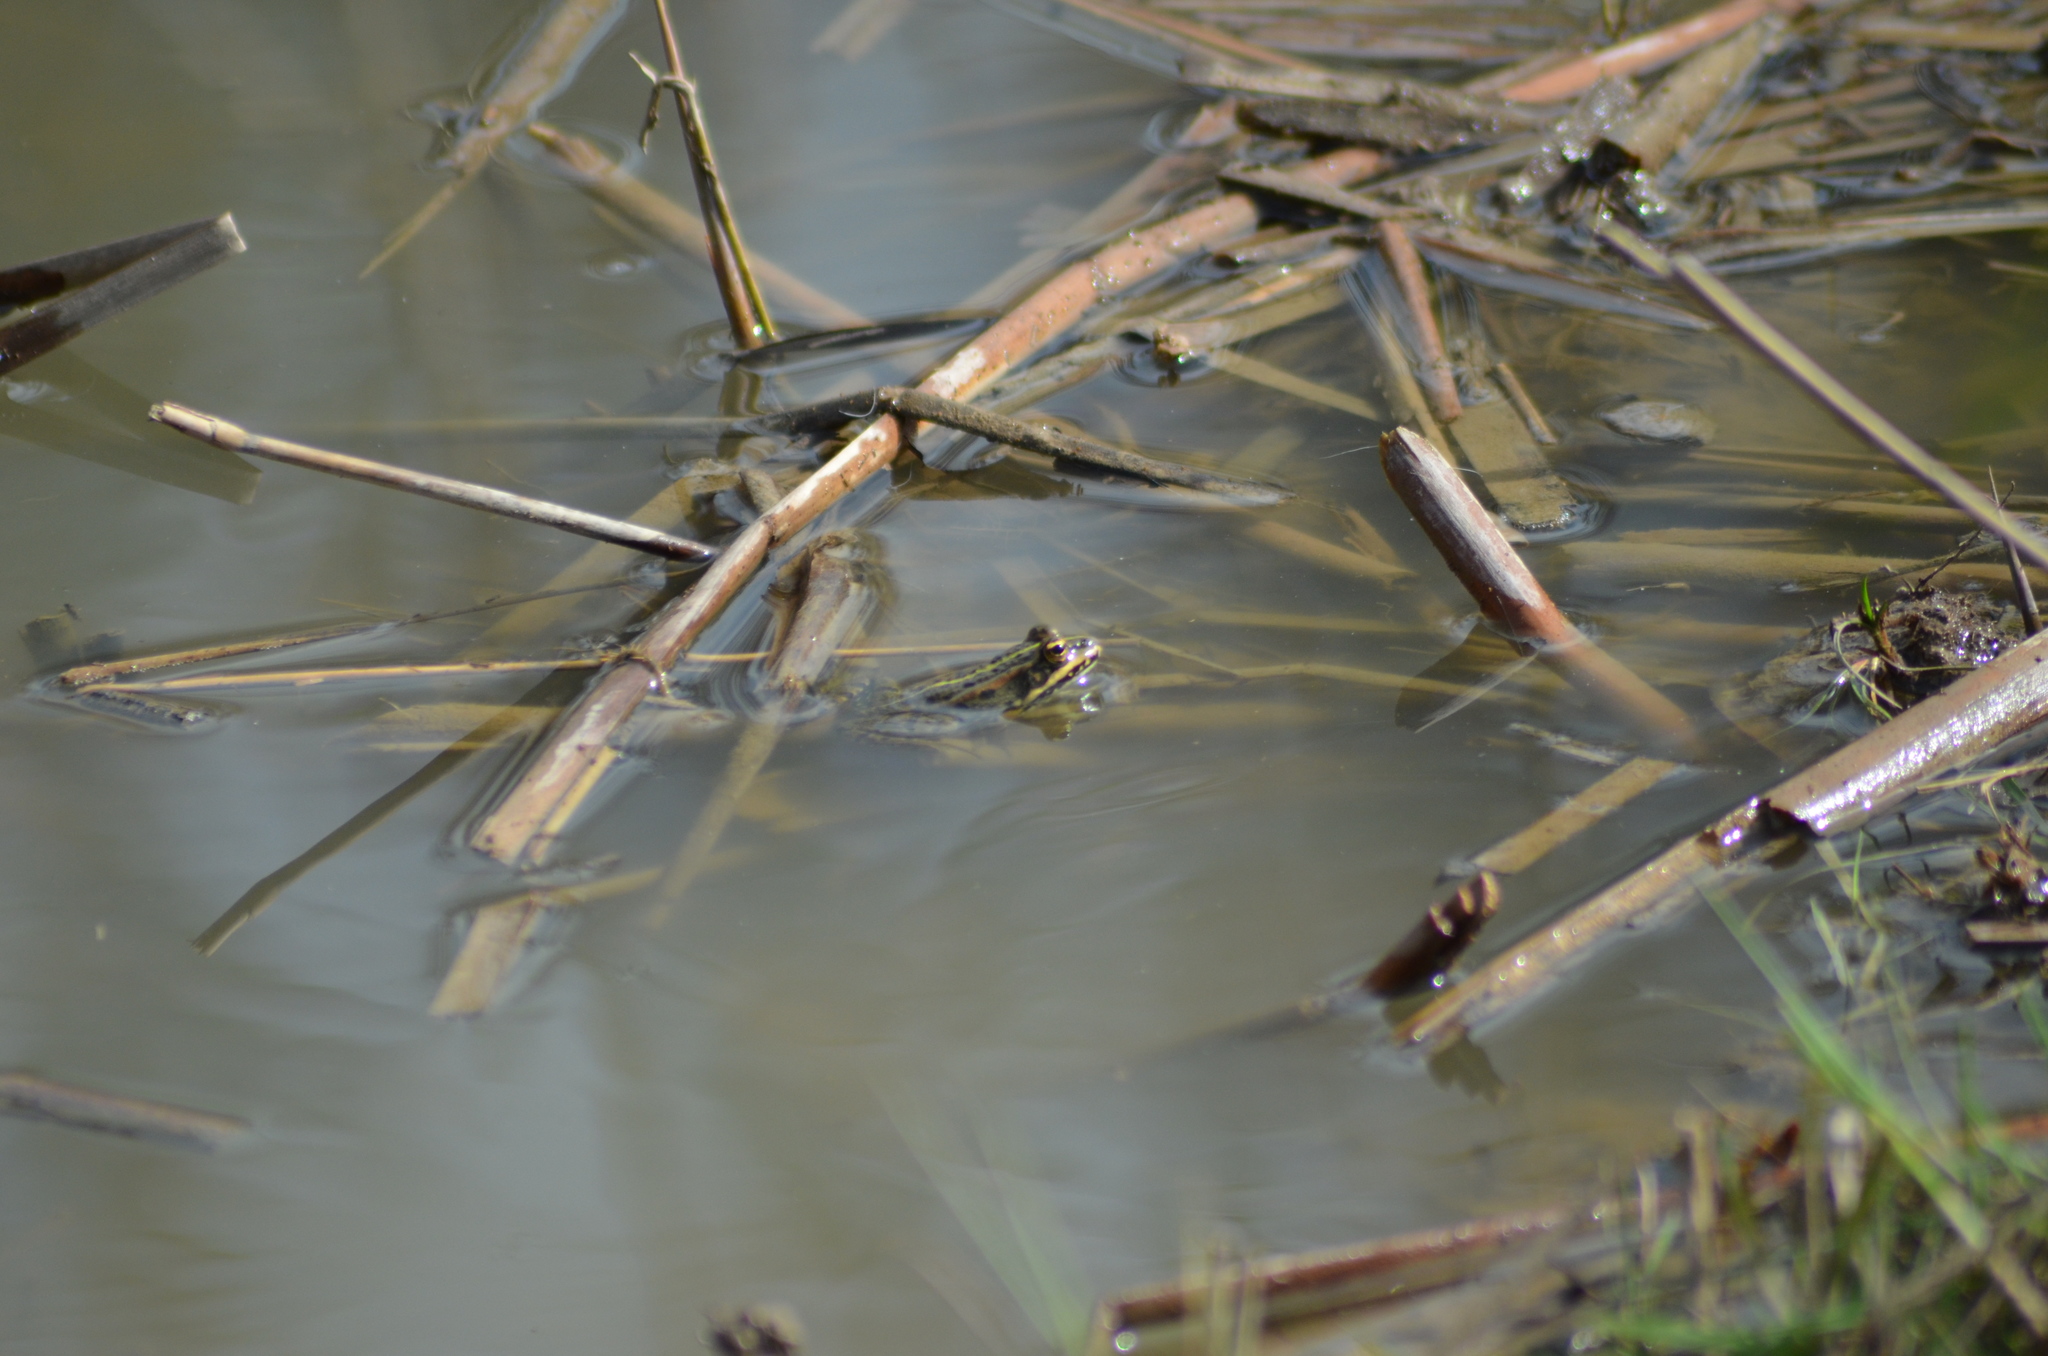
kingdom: Animalia
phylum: Chordata
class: Amphibia
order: Anura
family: Ranidae
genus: Pelophylax
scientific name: Pelophylax perezi
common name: Perez's frog
